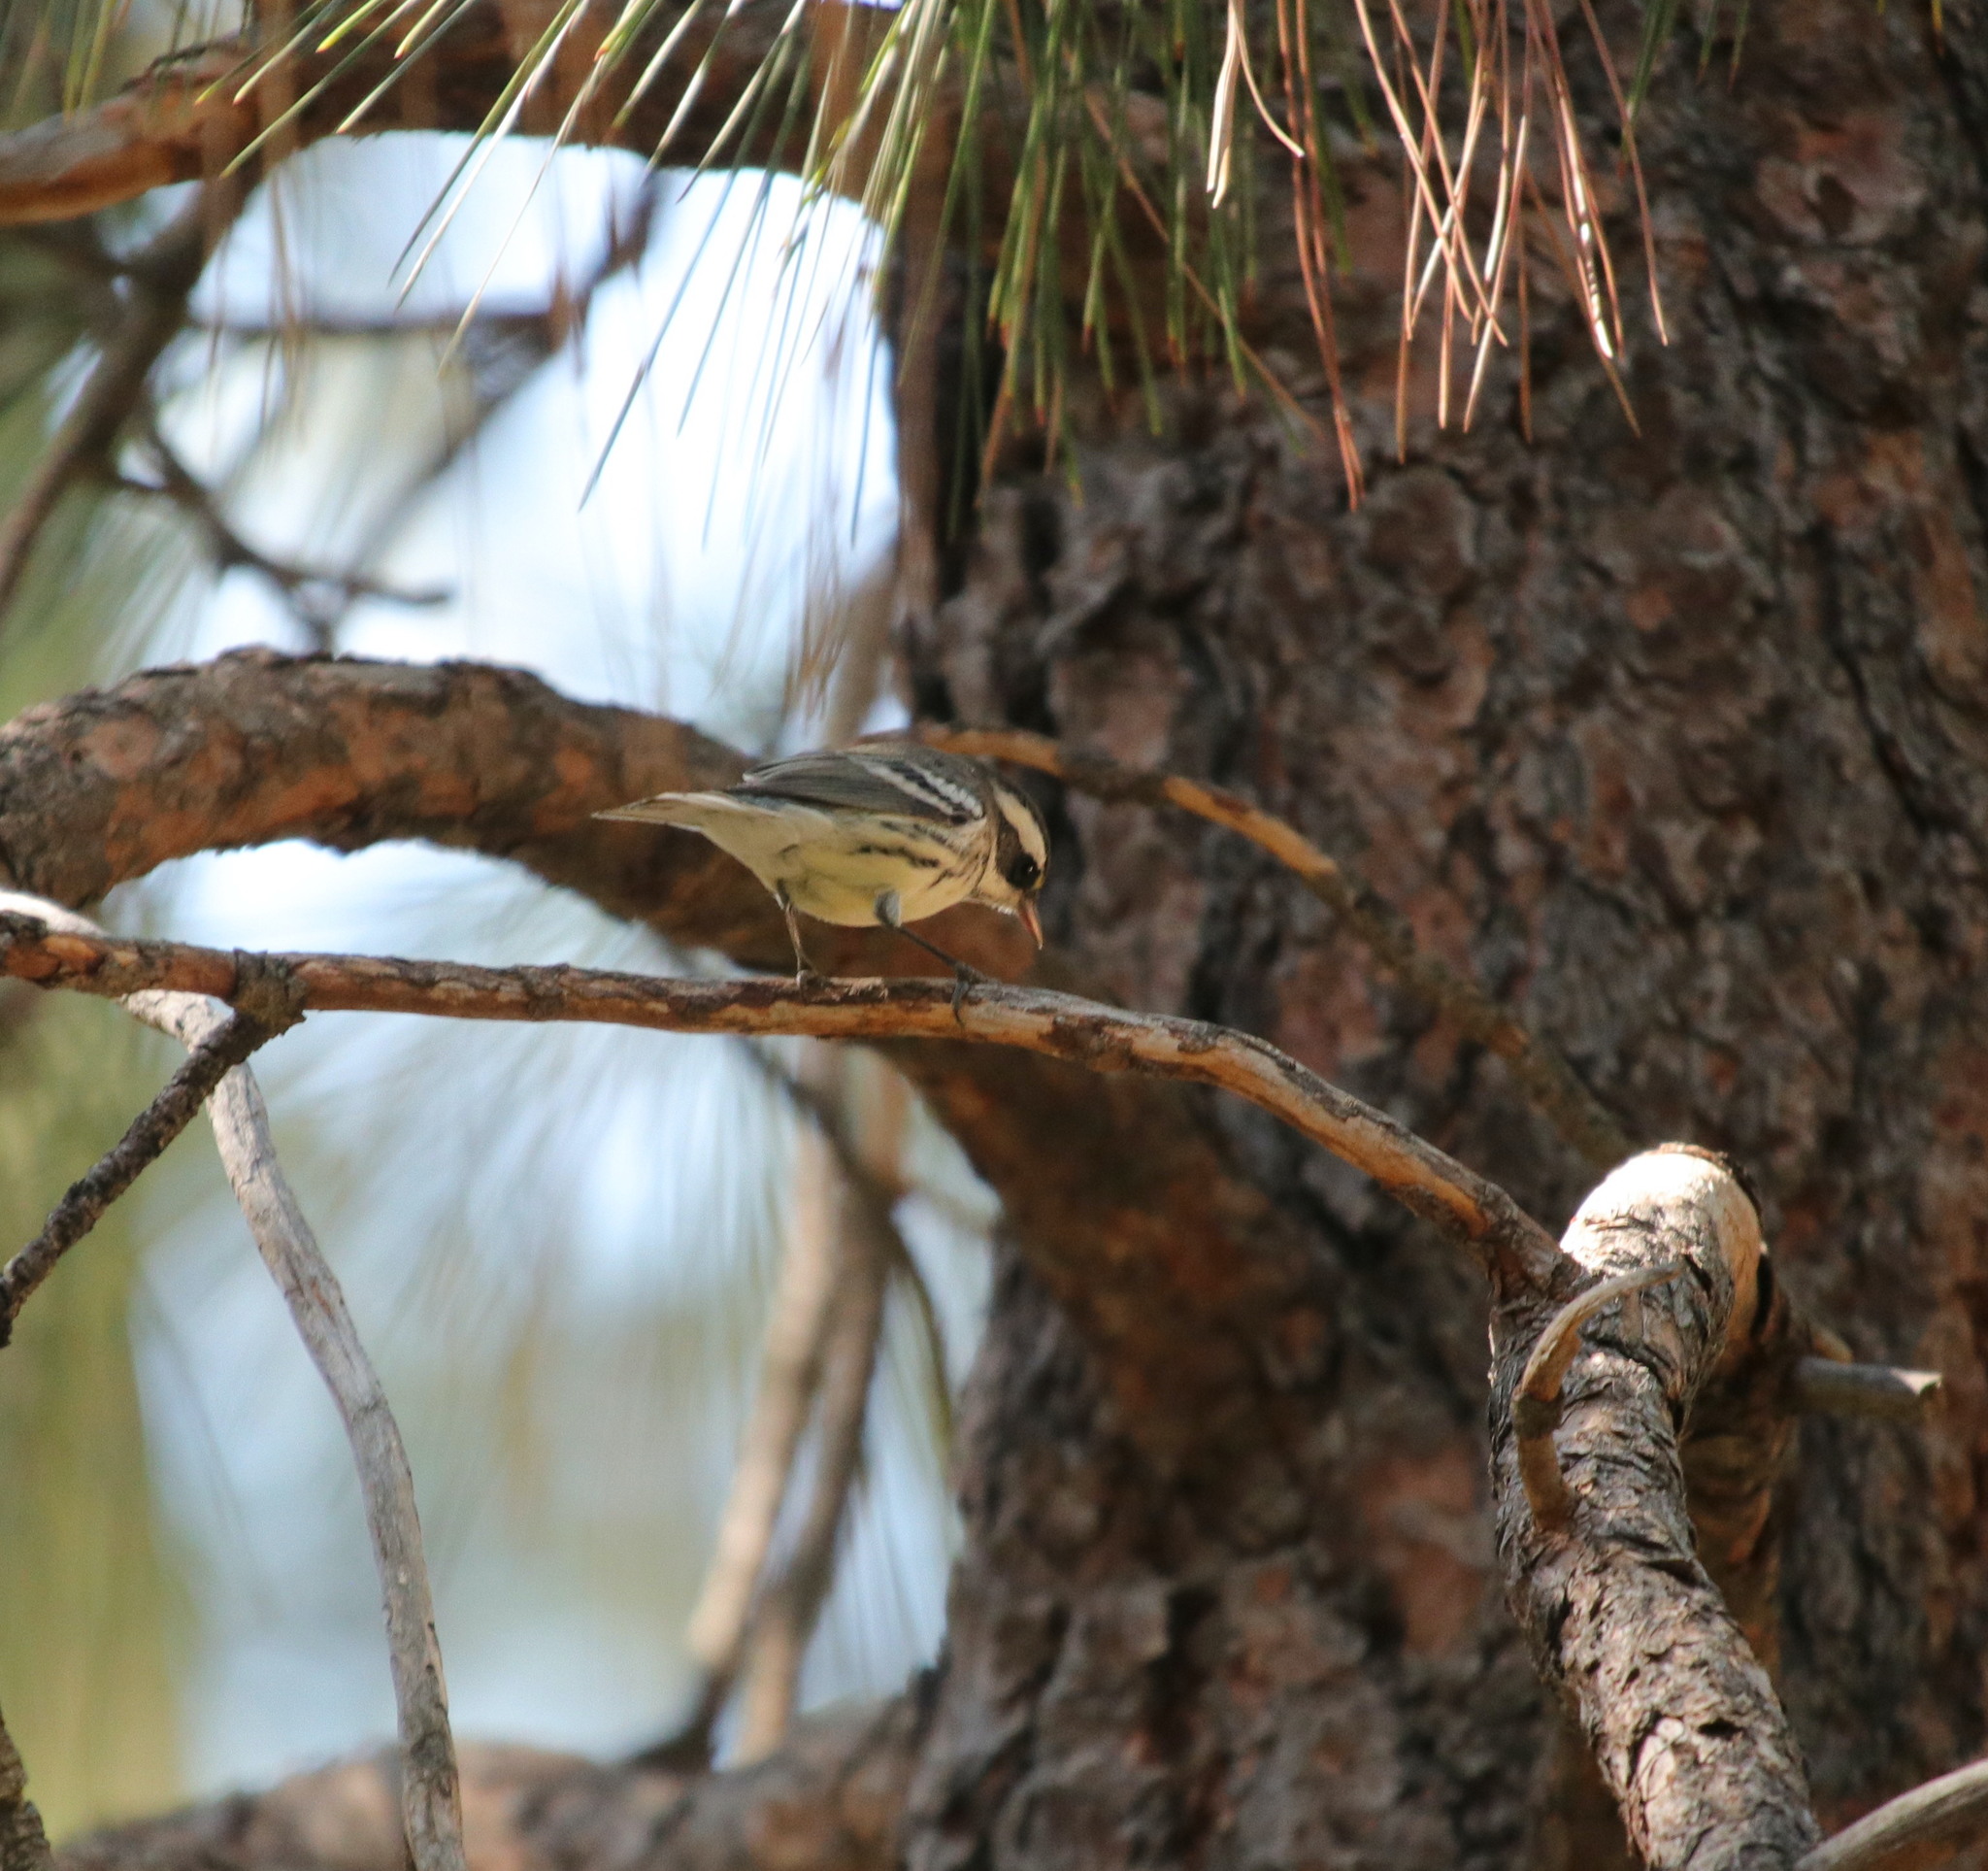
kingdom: Animalia
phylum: Chordata
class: Aves
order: Passeriformes
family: Parulidae
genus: Setophaga
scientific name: Setophaga nigrescens
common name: Black-throated gray warbler
